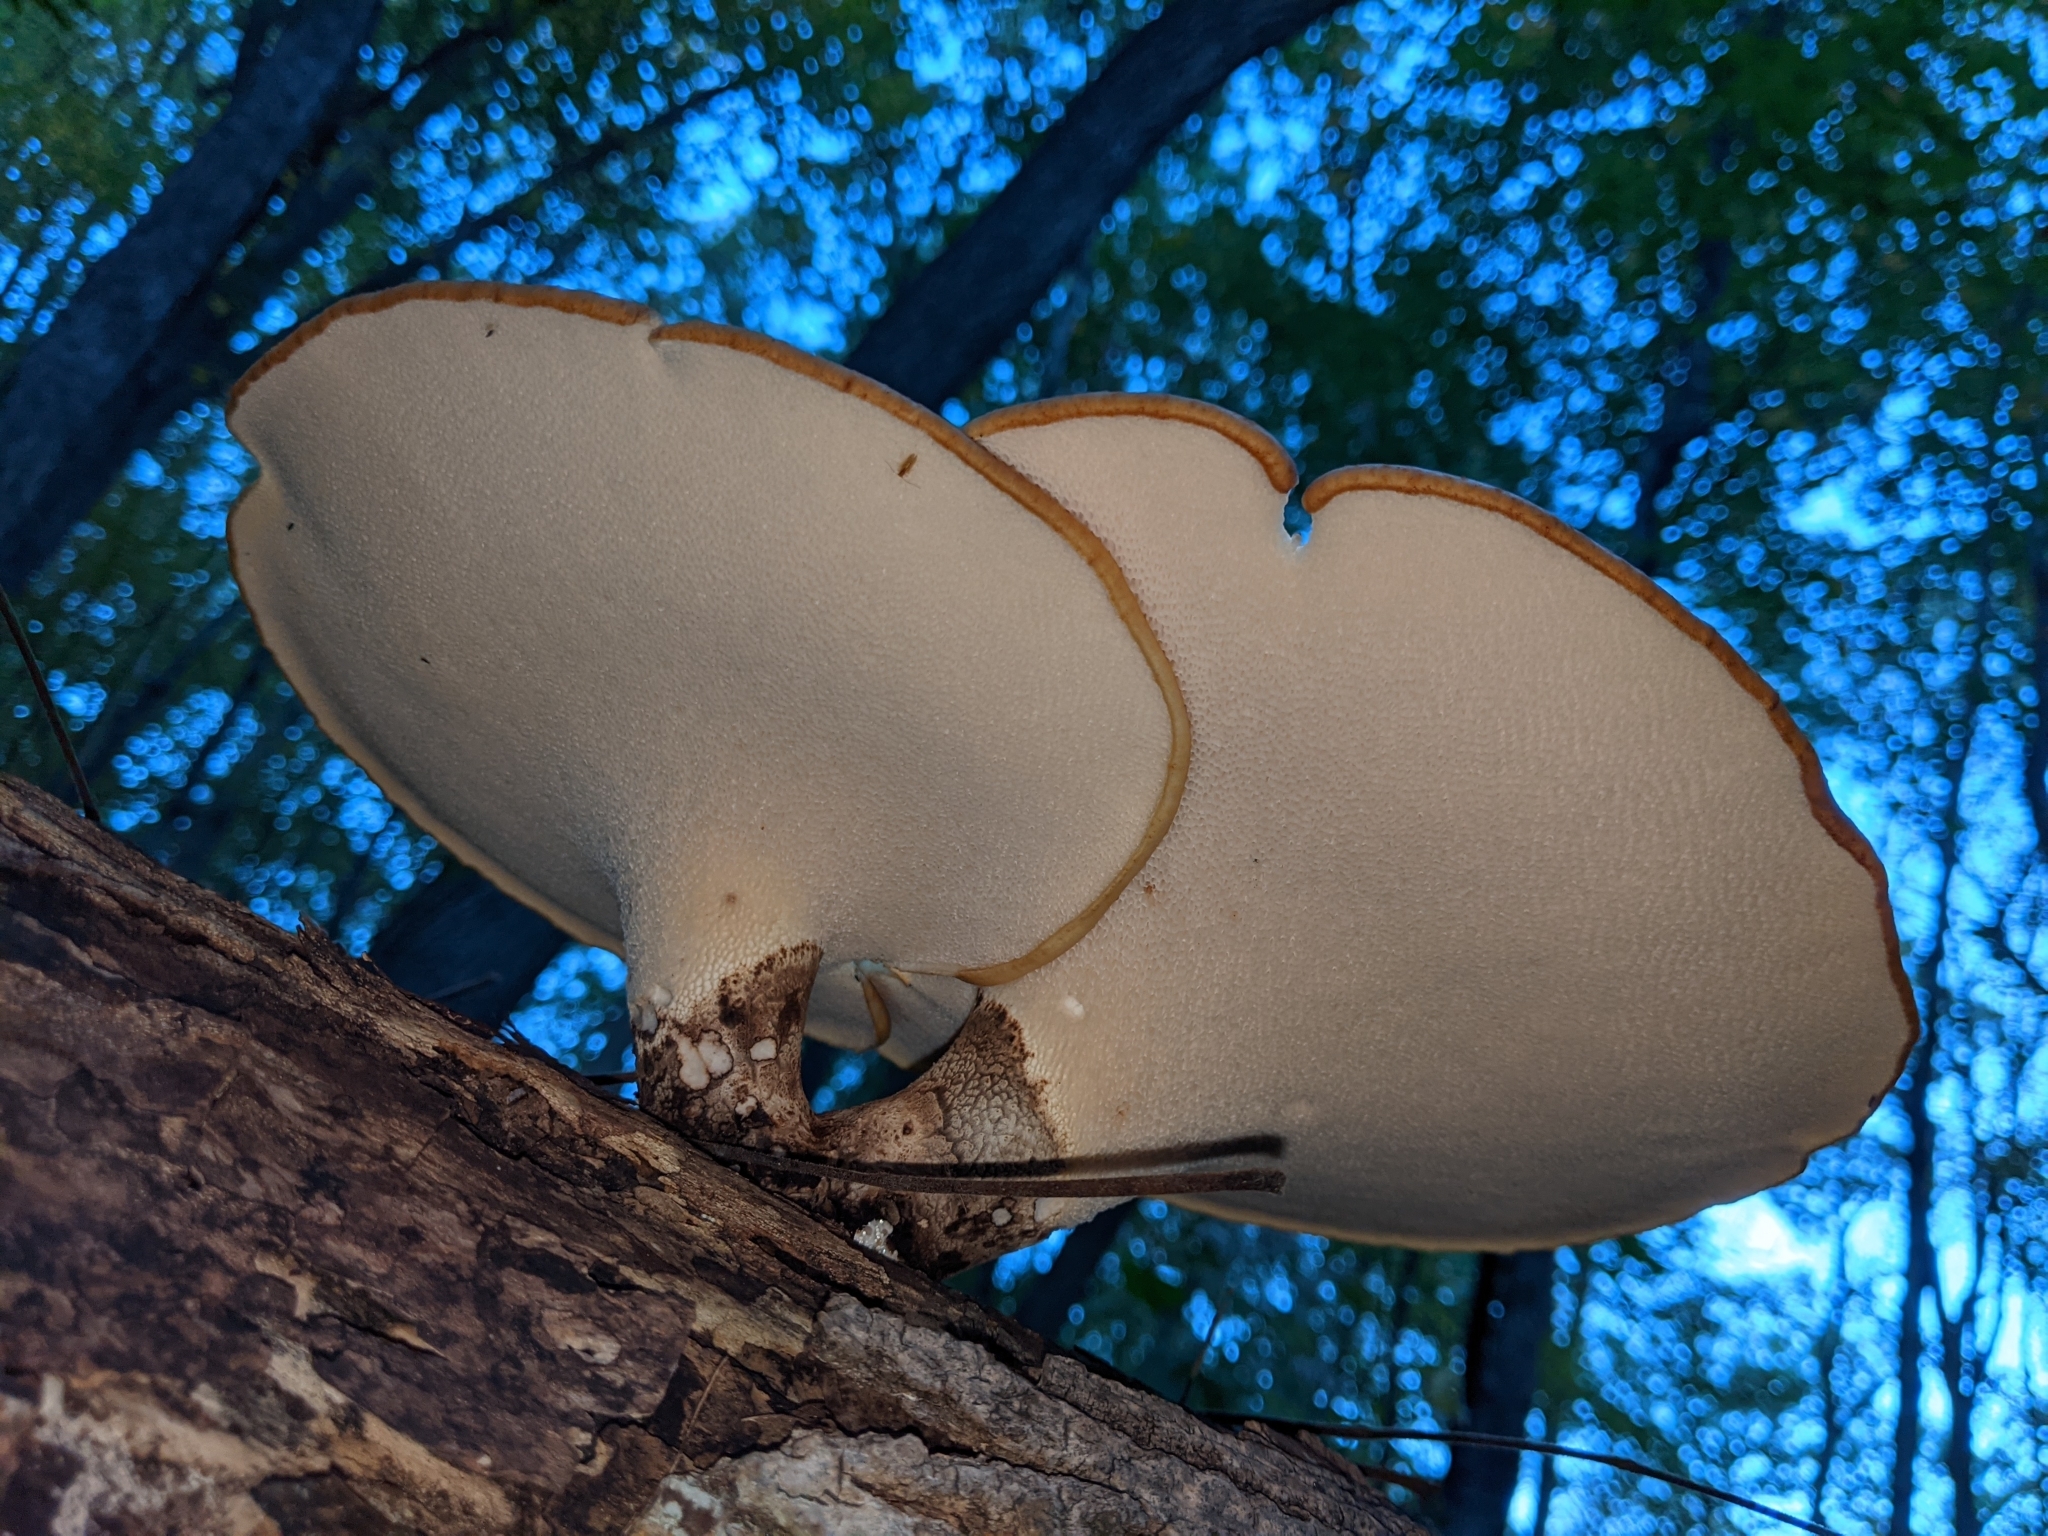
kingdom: Fungi
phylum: Basidiomycota
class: Agaricomycetes
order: Polyporales
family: Polyporaceae
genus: Cerioporus
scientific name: Cerioporus squamosus
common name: Dryad's saddle
